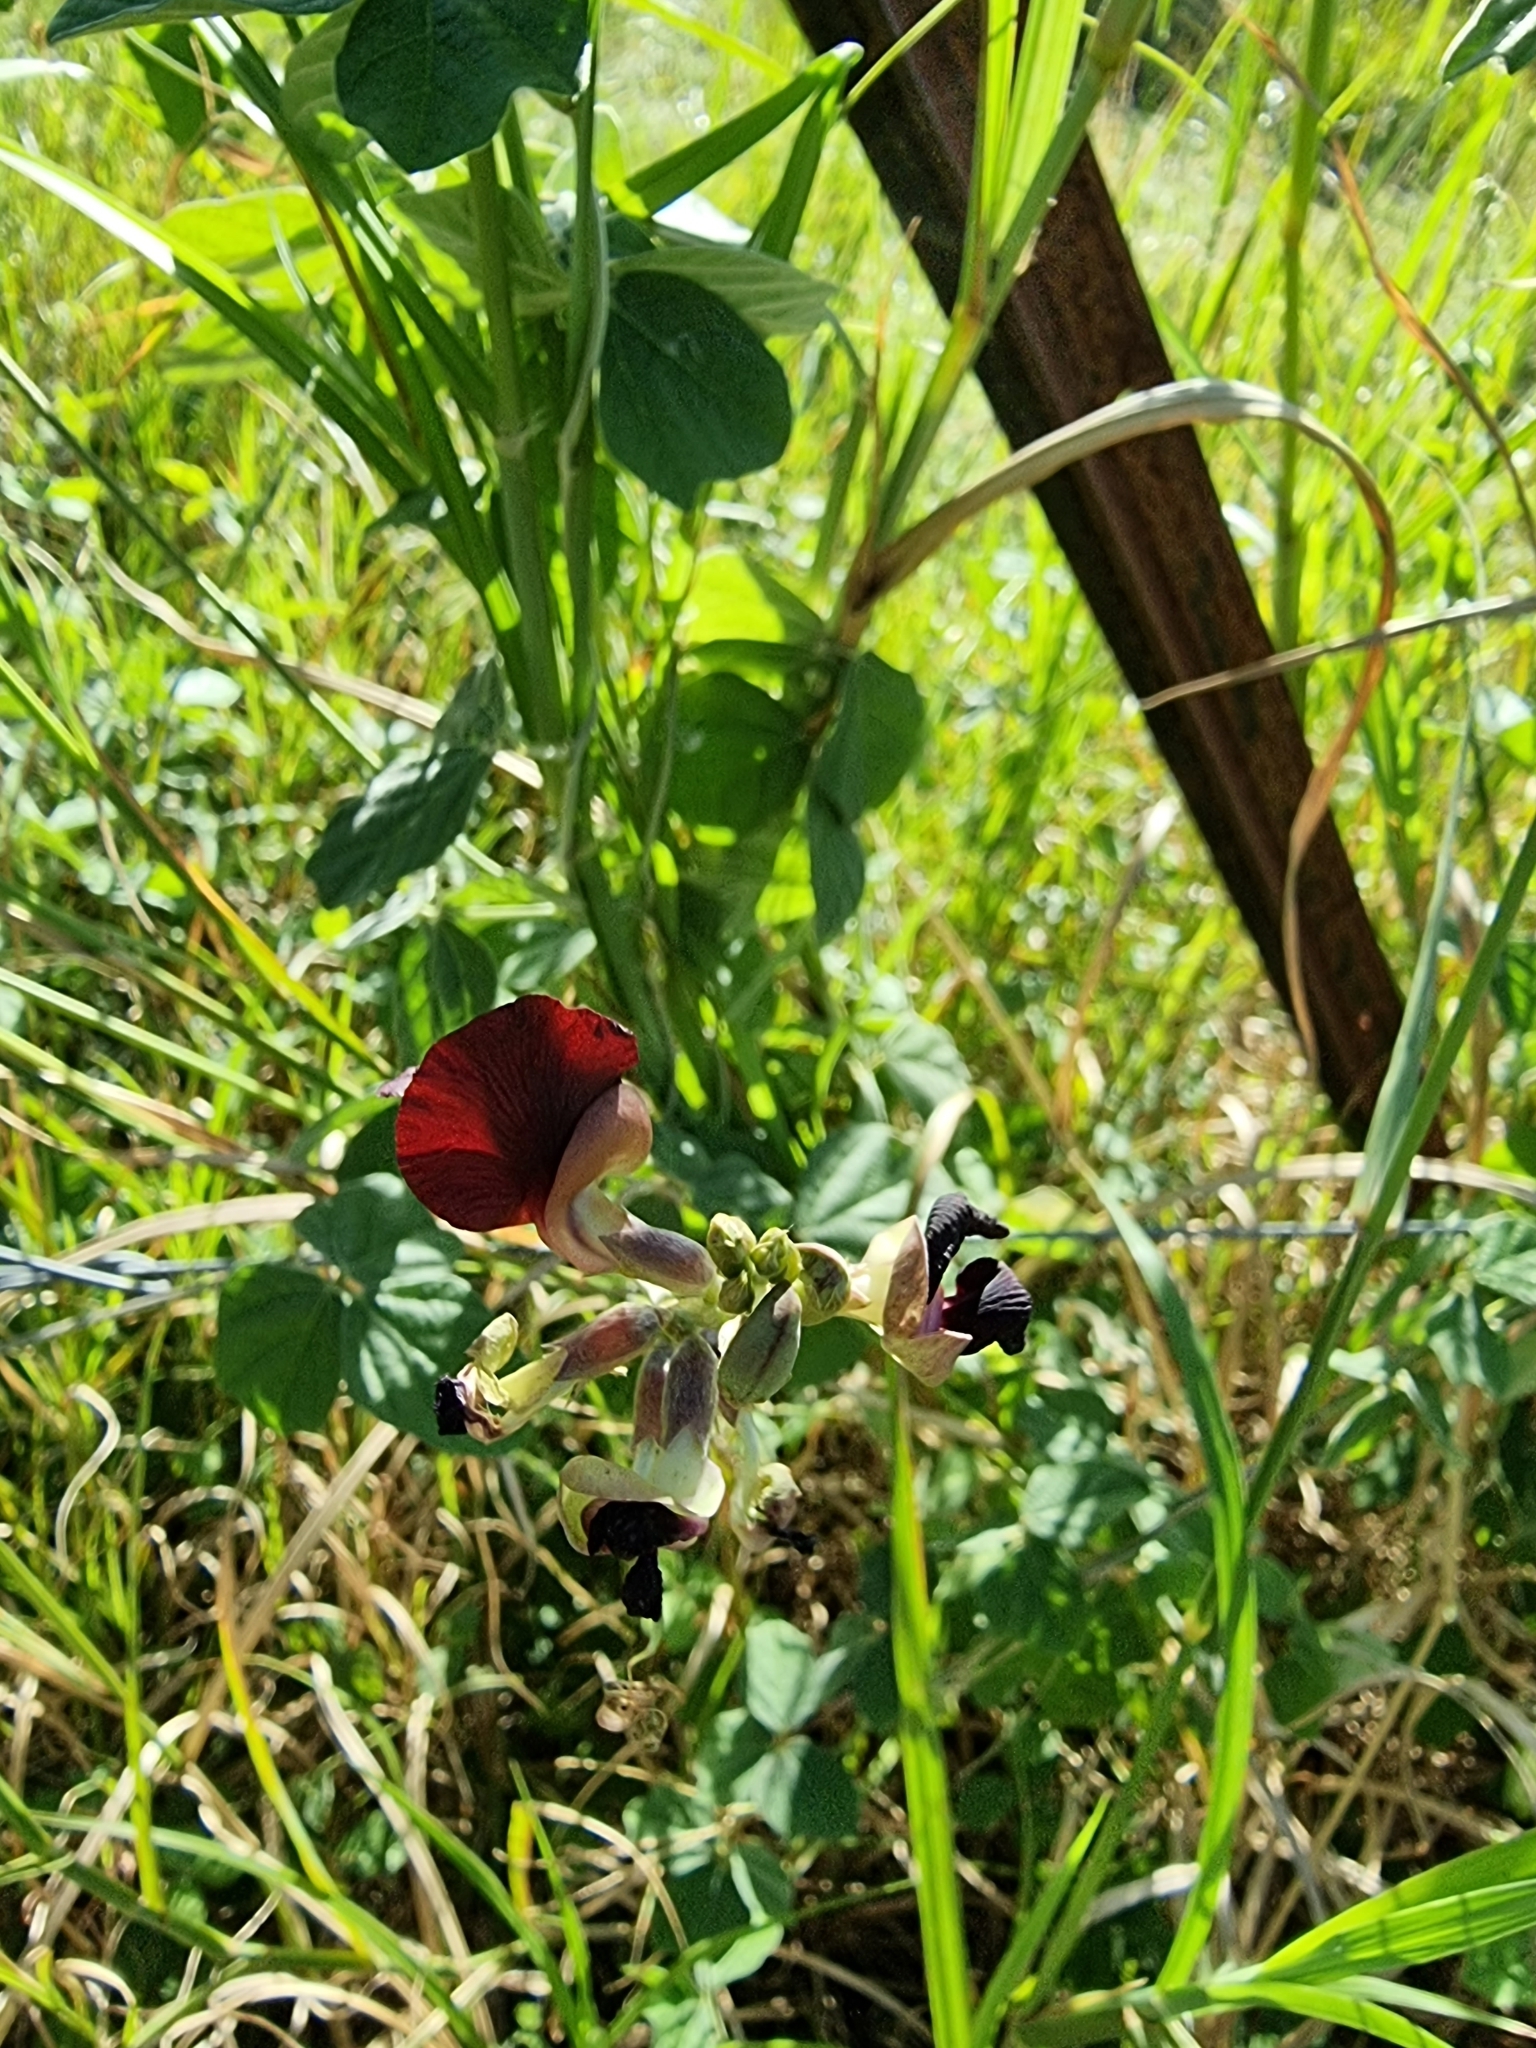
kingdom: Plantae
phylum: Tracheophyta
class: Magnoliopsida
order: Fabales
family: Fabaceae
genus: Macroptilium
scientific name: Macroptilium atropurpureum
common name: Purple bushbean
